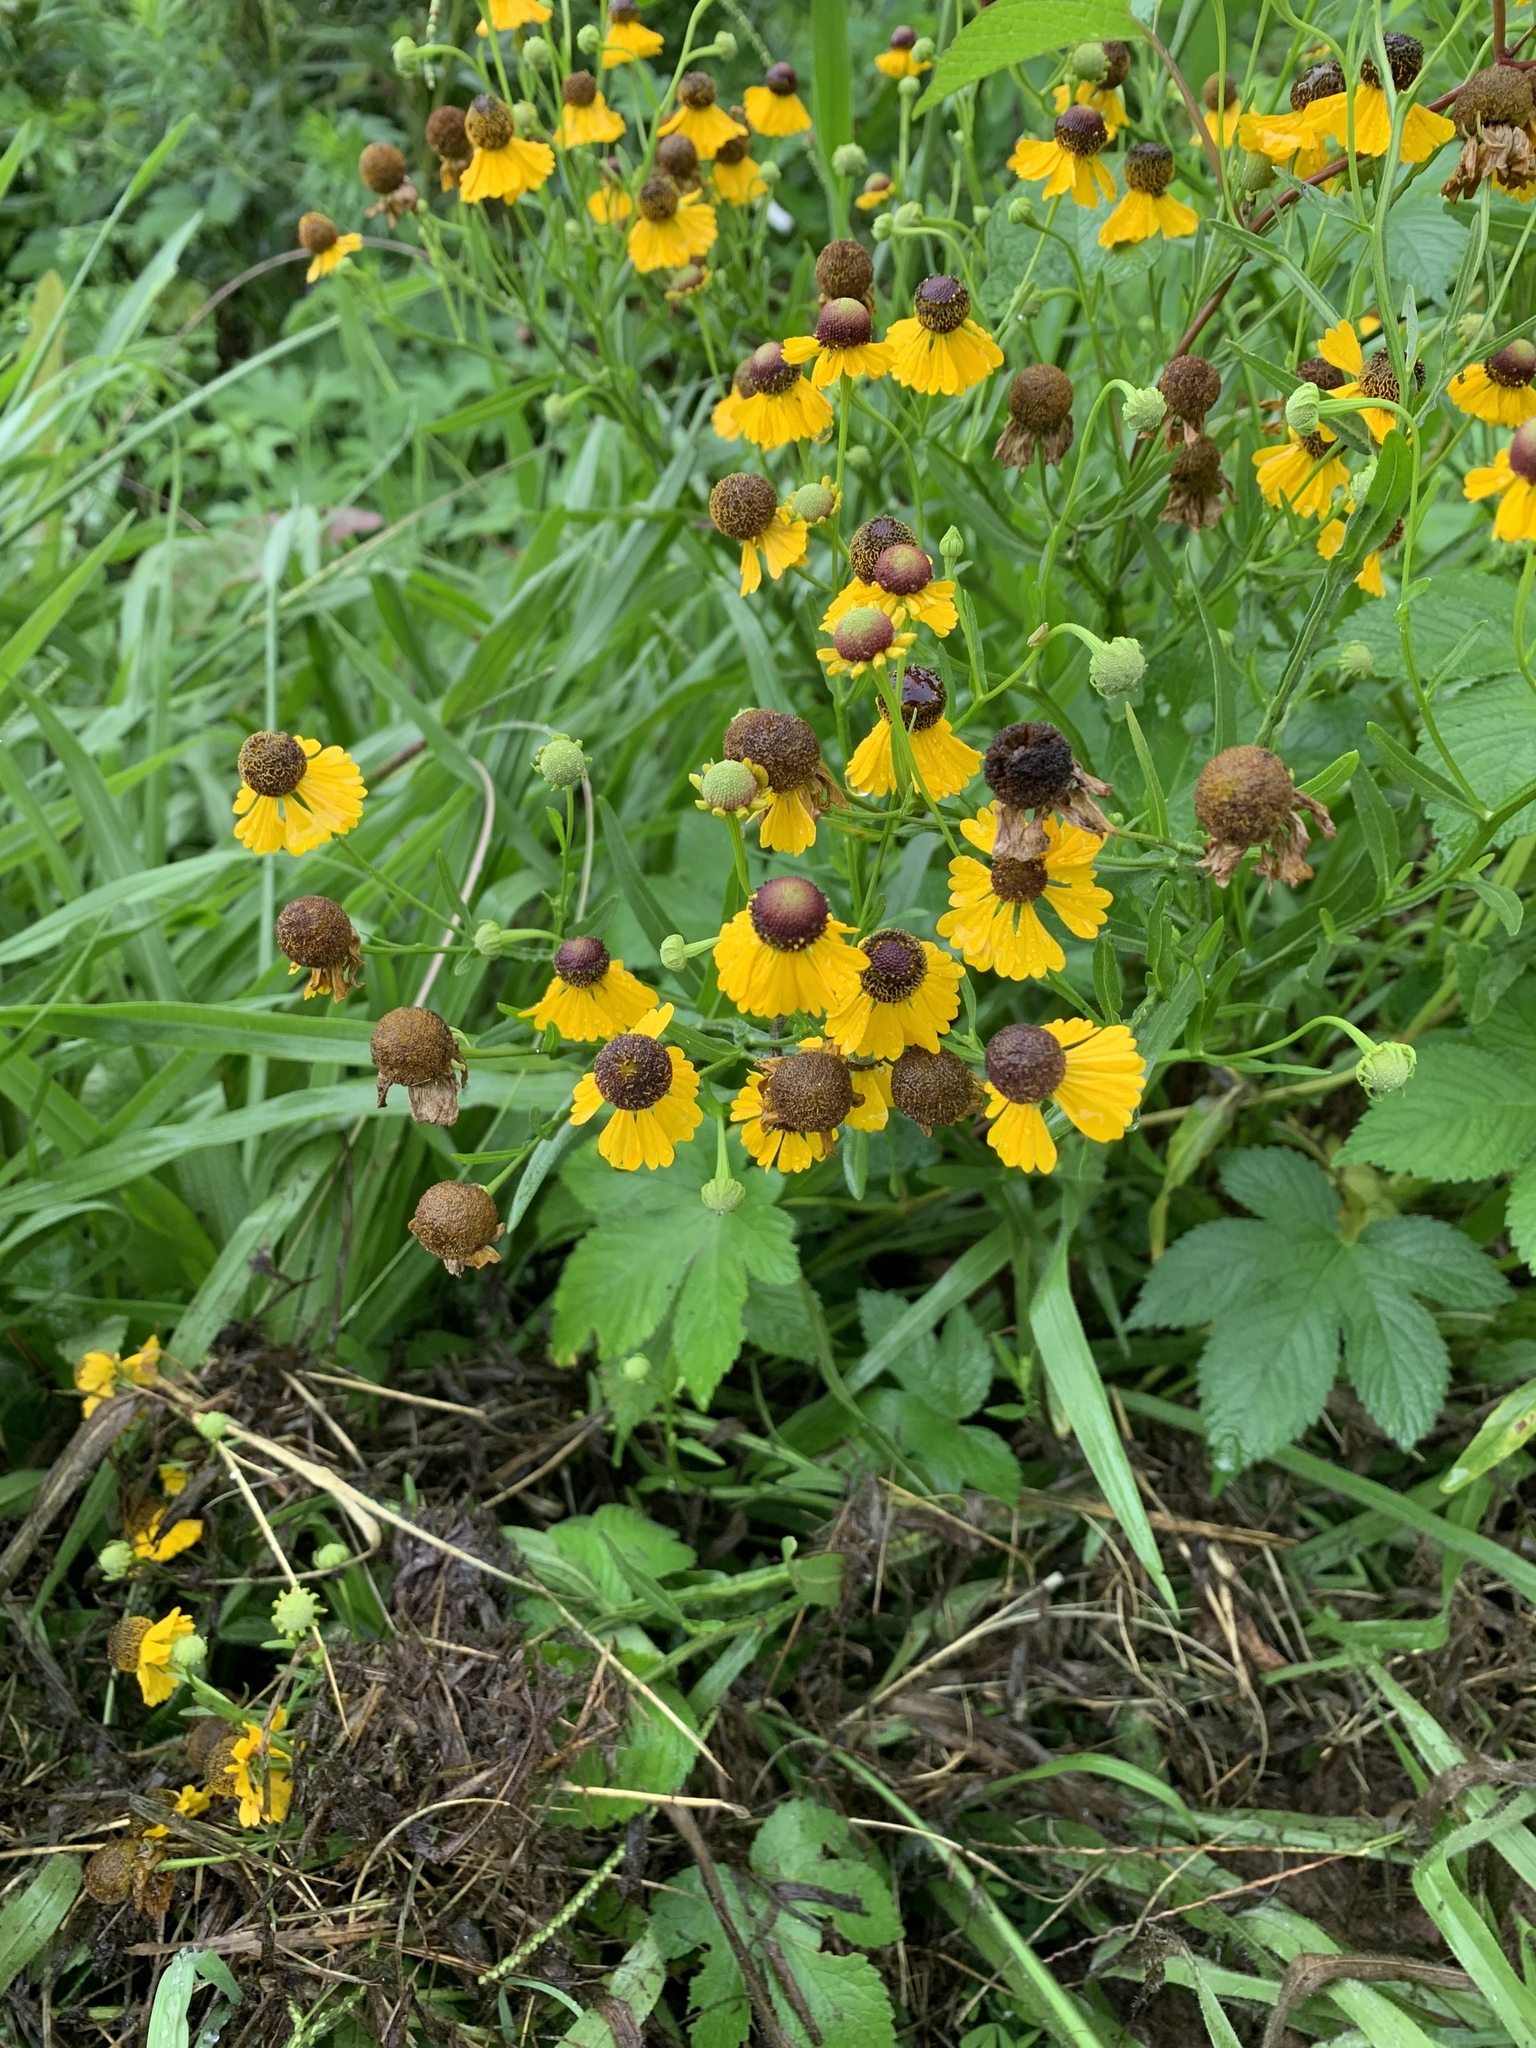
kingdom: Plantae
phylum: Tracheophyta
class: Magnoliopsida
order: Asterales
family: Asteraceae
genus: Helenium
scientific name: Helenium flexuosum
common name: Naked-flowered sneezeweed
